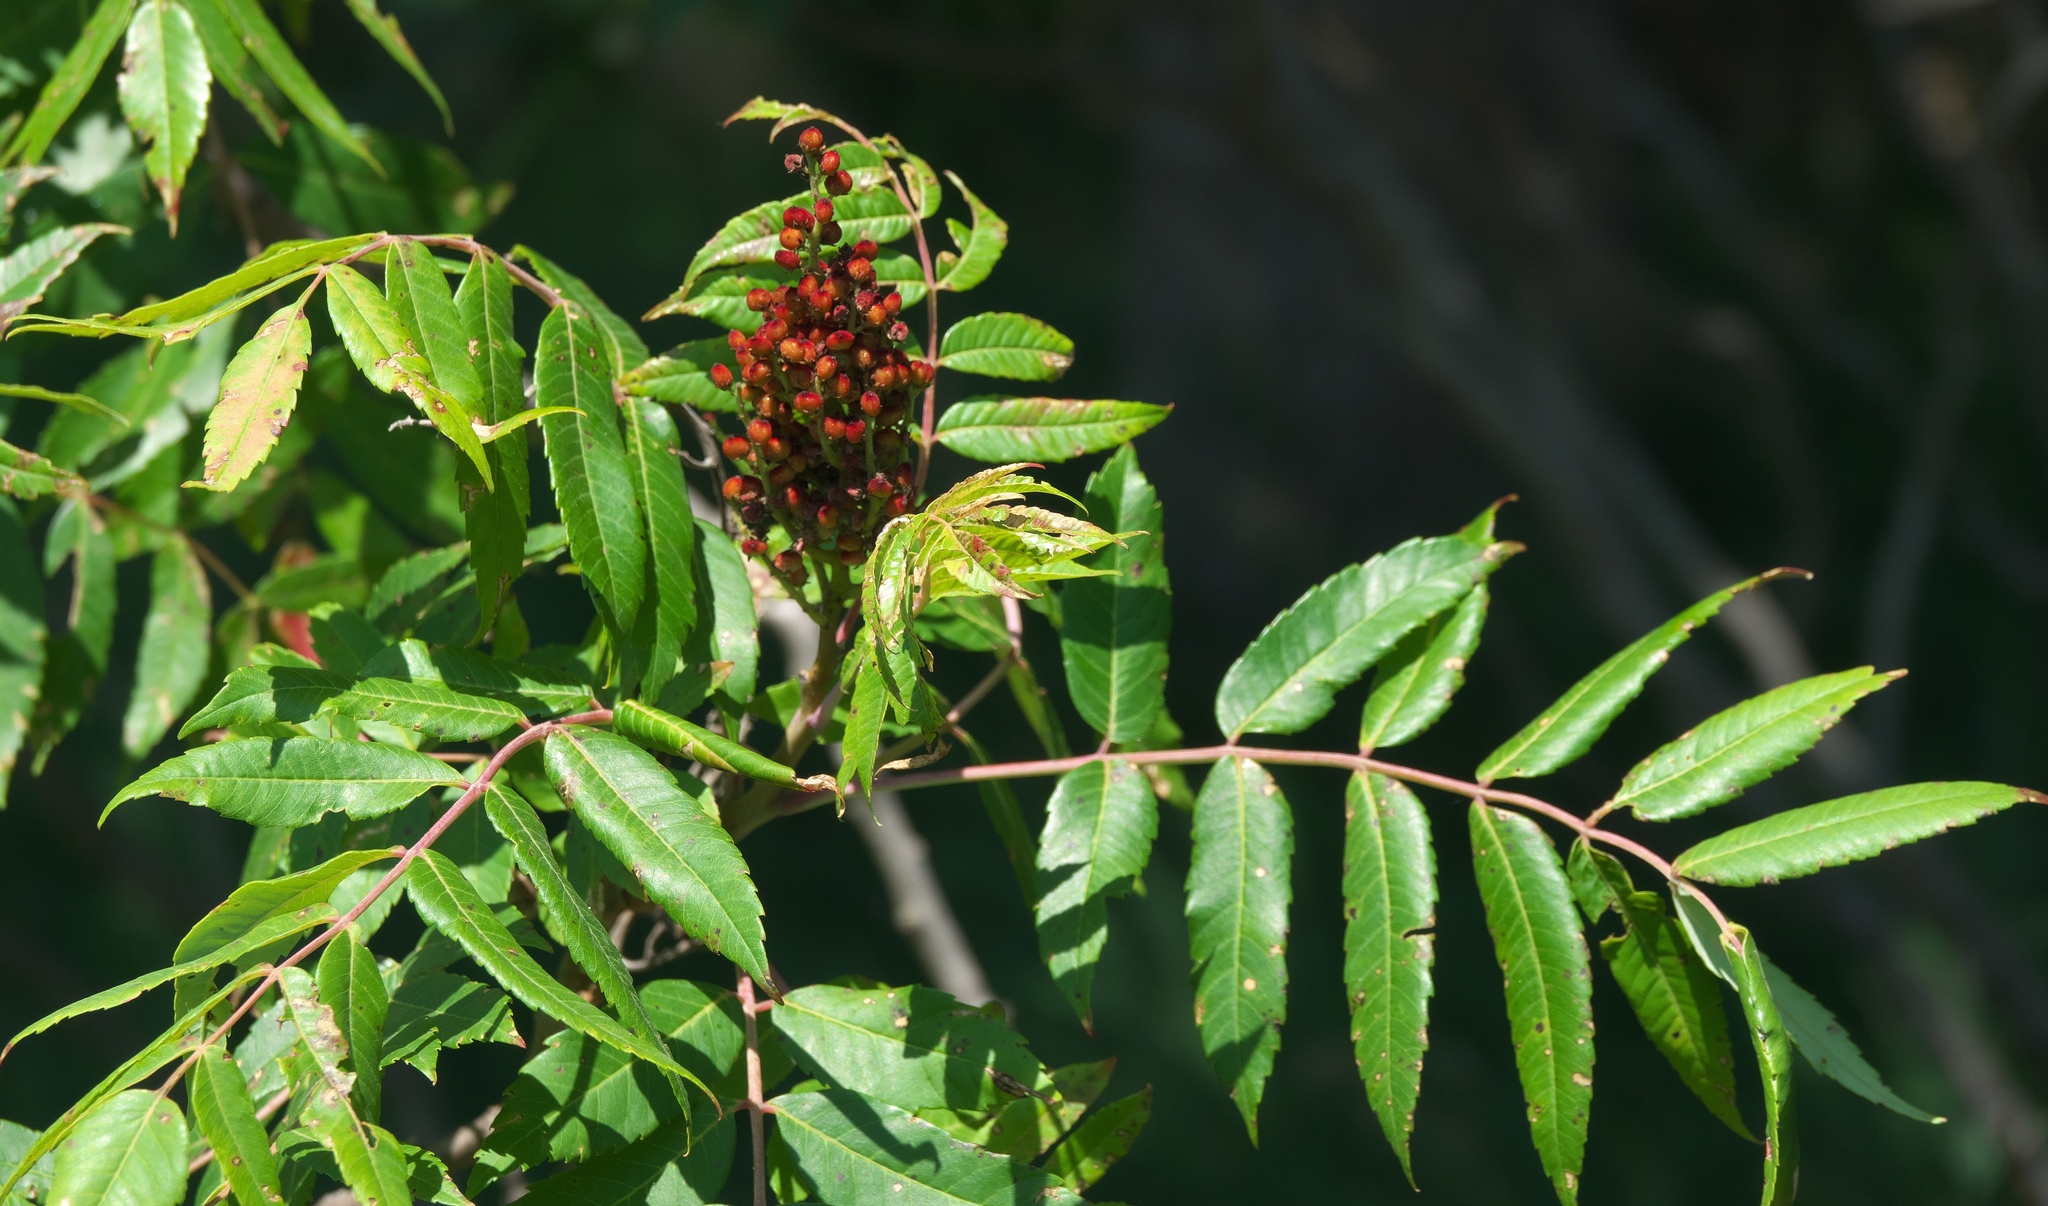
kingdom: Plantae
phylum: Tracheophyta
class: Magnoliopsida
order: Sapindales
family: Anacardiaceae
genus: Rhus
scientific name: Rhus glabra
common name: Scarlet sumac
